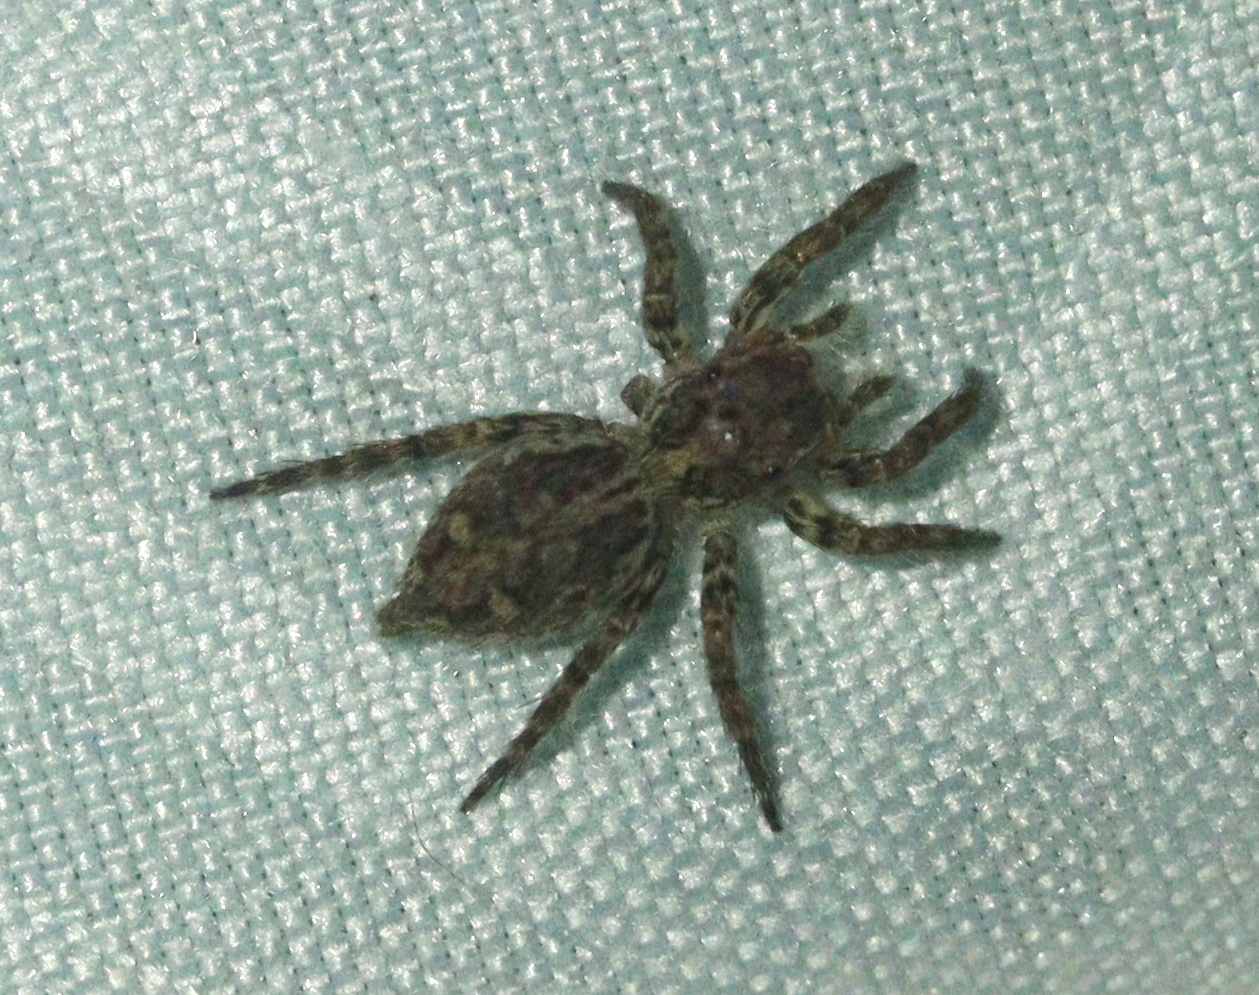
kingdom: Animalia
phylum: Arthropoda
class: Arachnida
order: Araneae
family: Salticidae
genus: Plexippus
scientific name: Plexippus petersi
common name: Jumping spider
